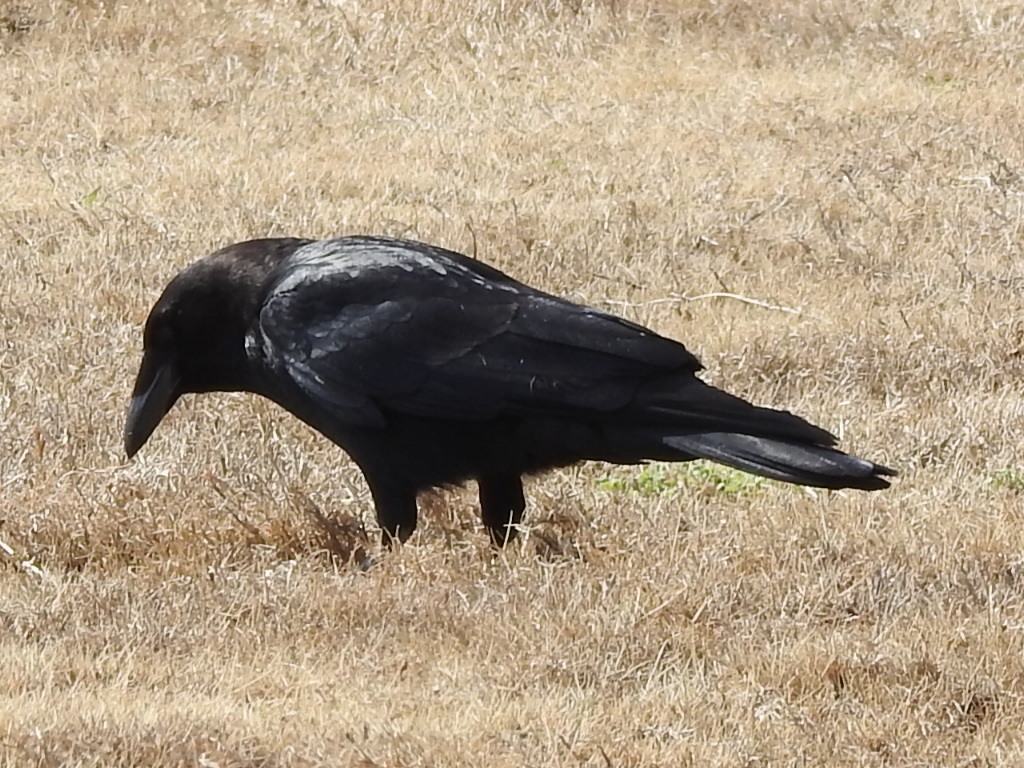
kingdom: Animalia
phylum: Chordata
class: Aves
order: Passeriformes
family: Corvidae
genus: Corvus
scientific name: Corvus brachyrhynchos
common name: American crow
